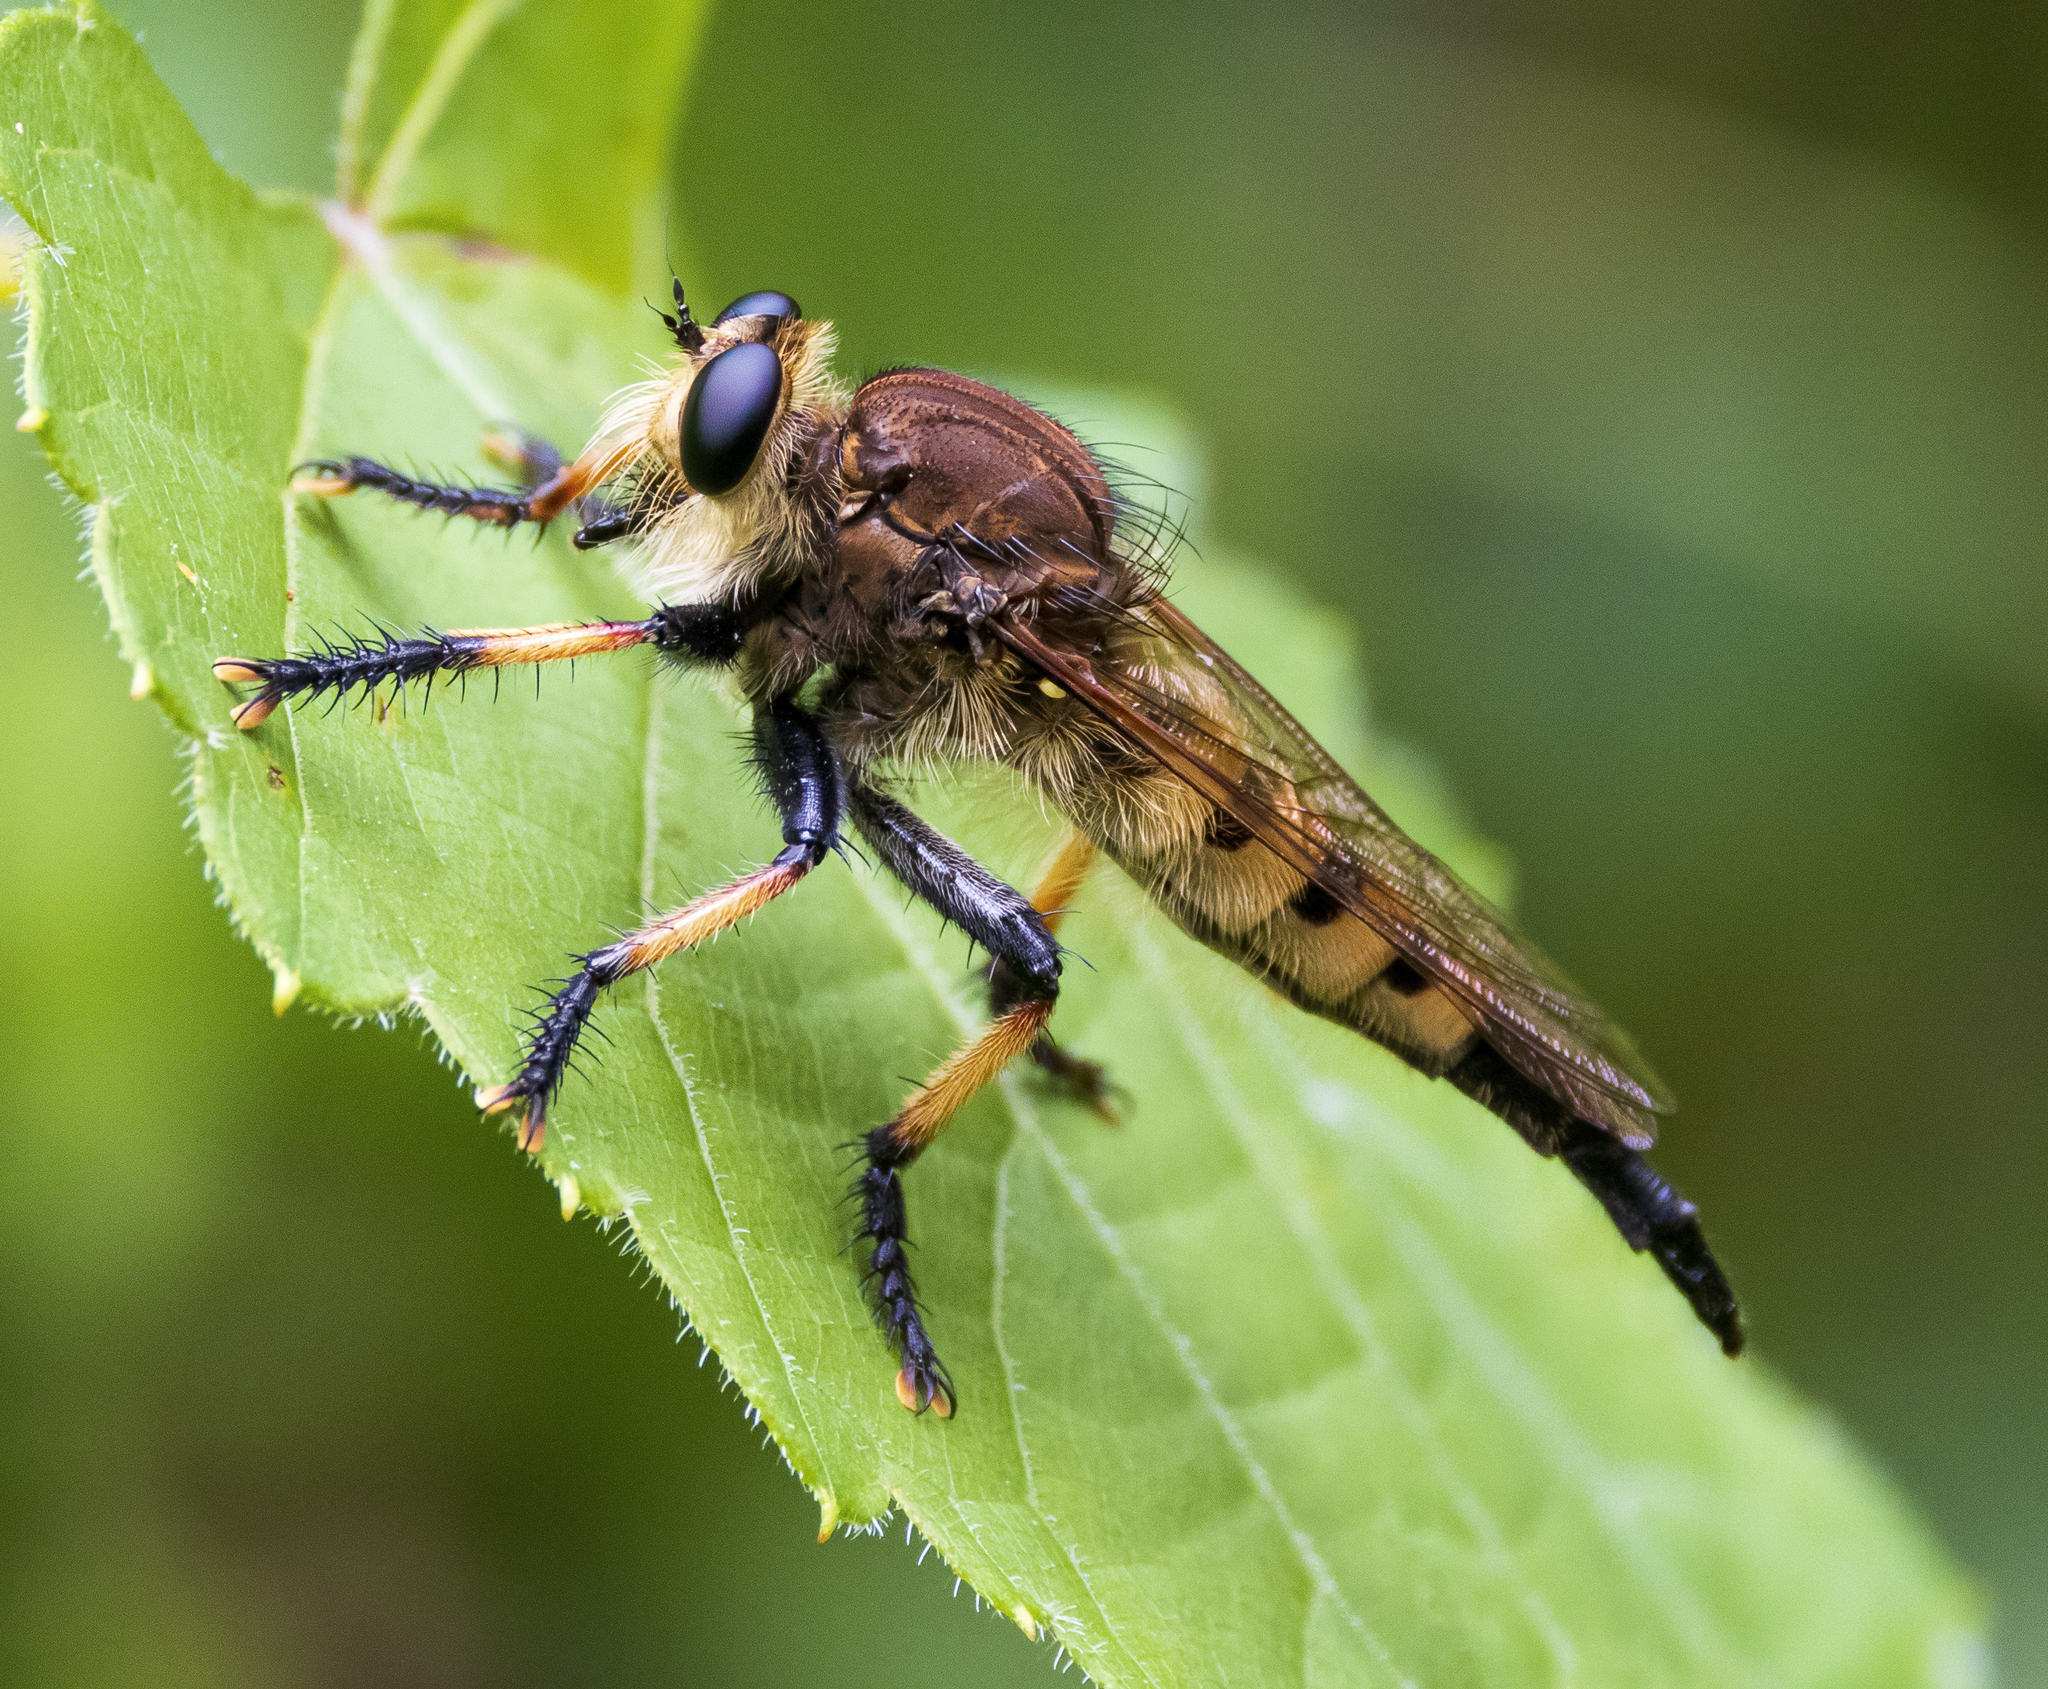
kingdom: Animalia
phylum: Arthropoda
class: Insecta
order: Diptera
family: Asilidae
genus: Promachus
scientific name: Promachus rufipes
